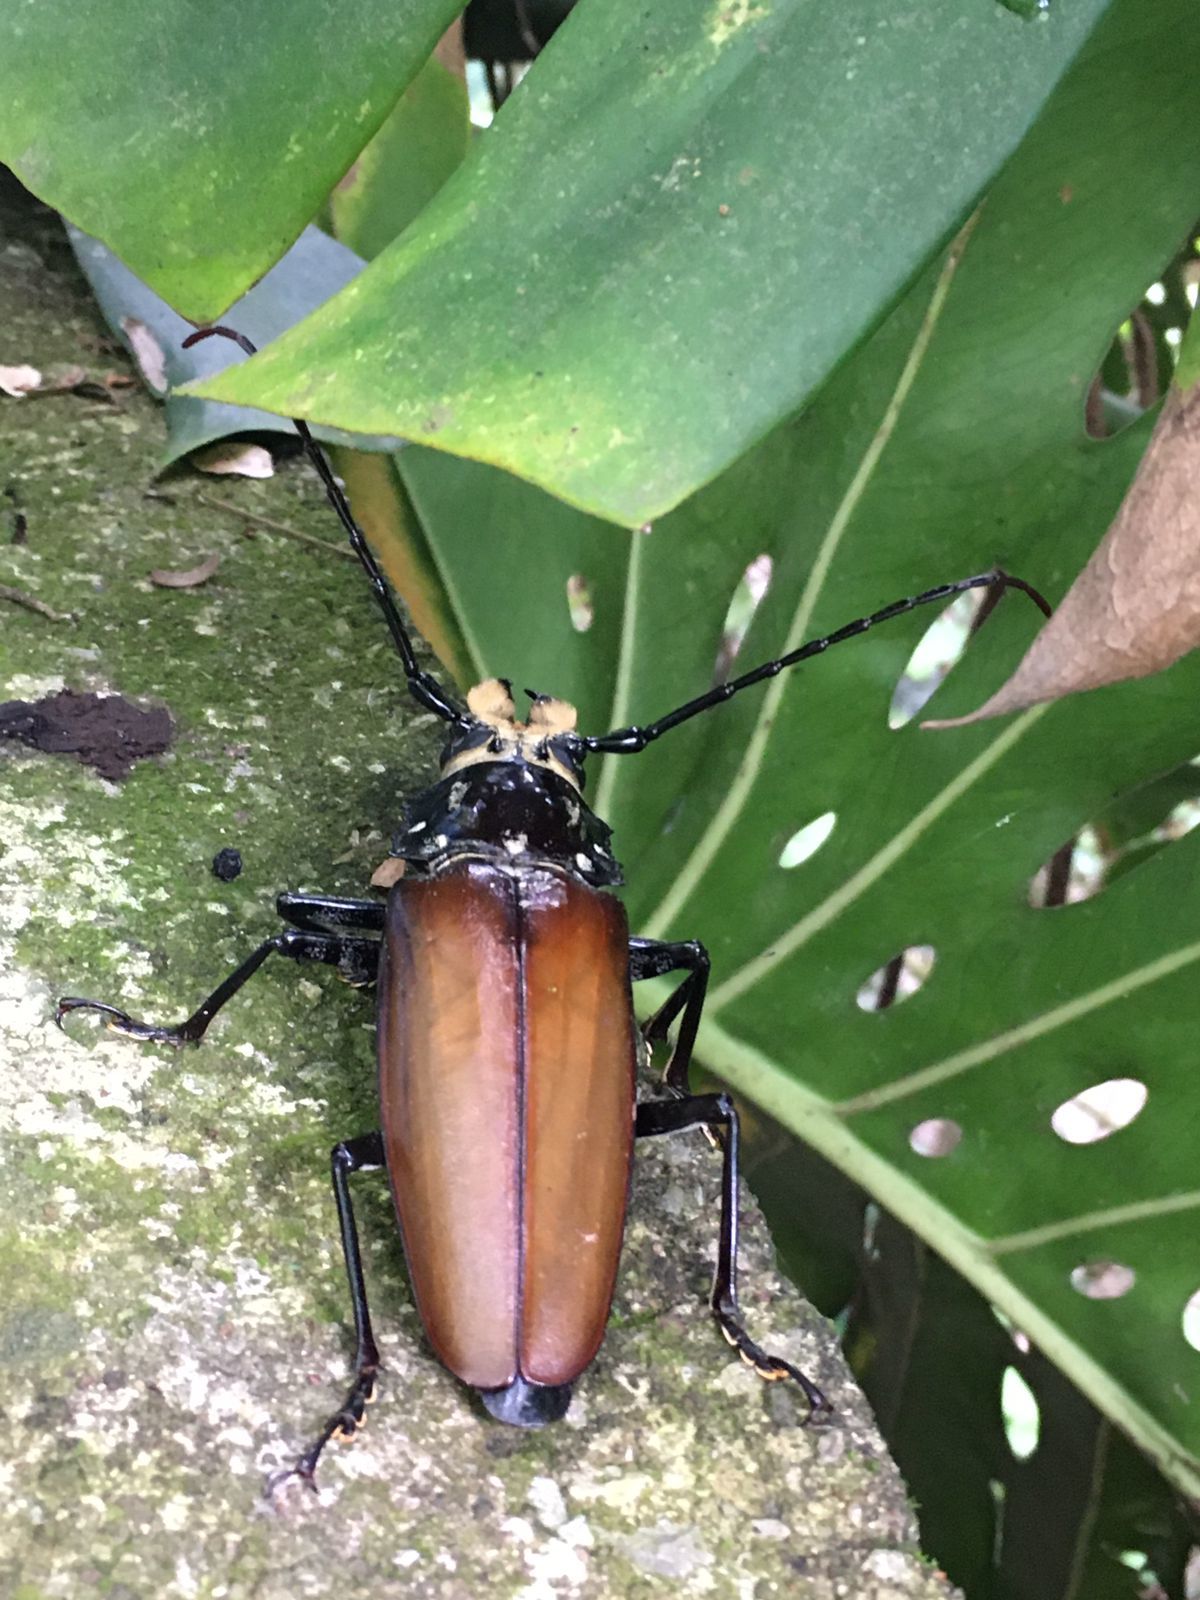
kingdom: Animalia
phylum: Arthropoda
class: Insecta
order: Coleoptera
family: Cerambycidae
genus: Callipogon
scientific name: Callipogon senex
